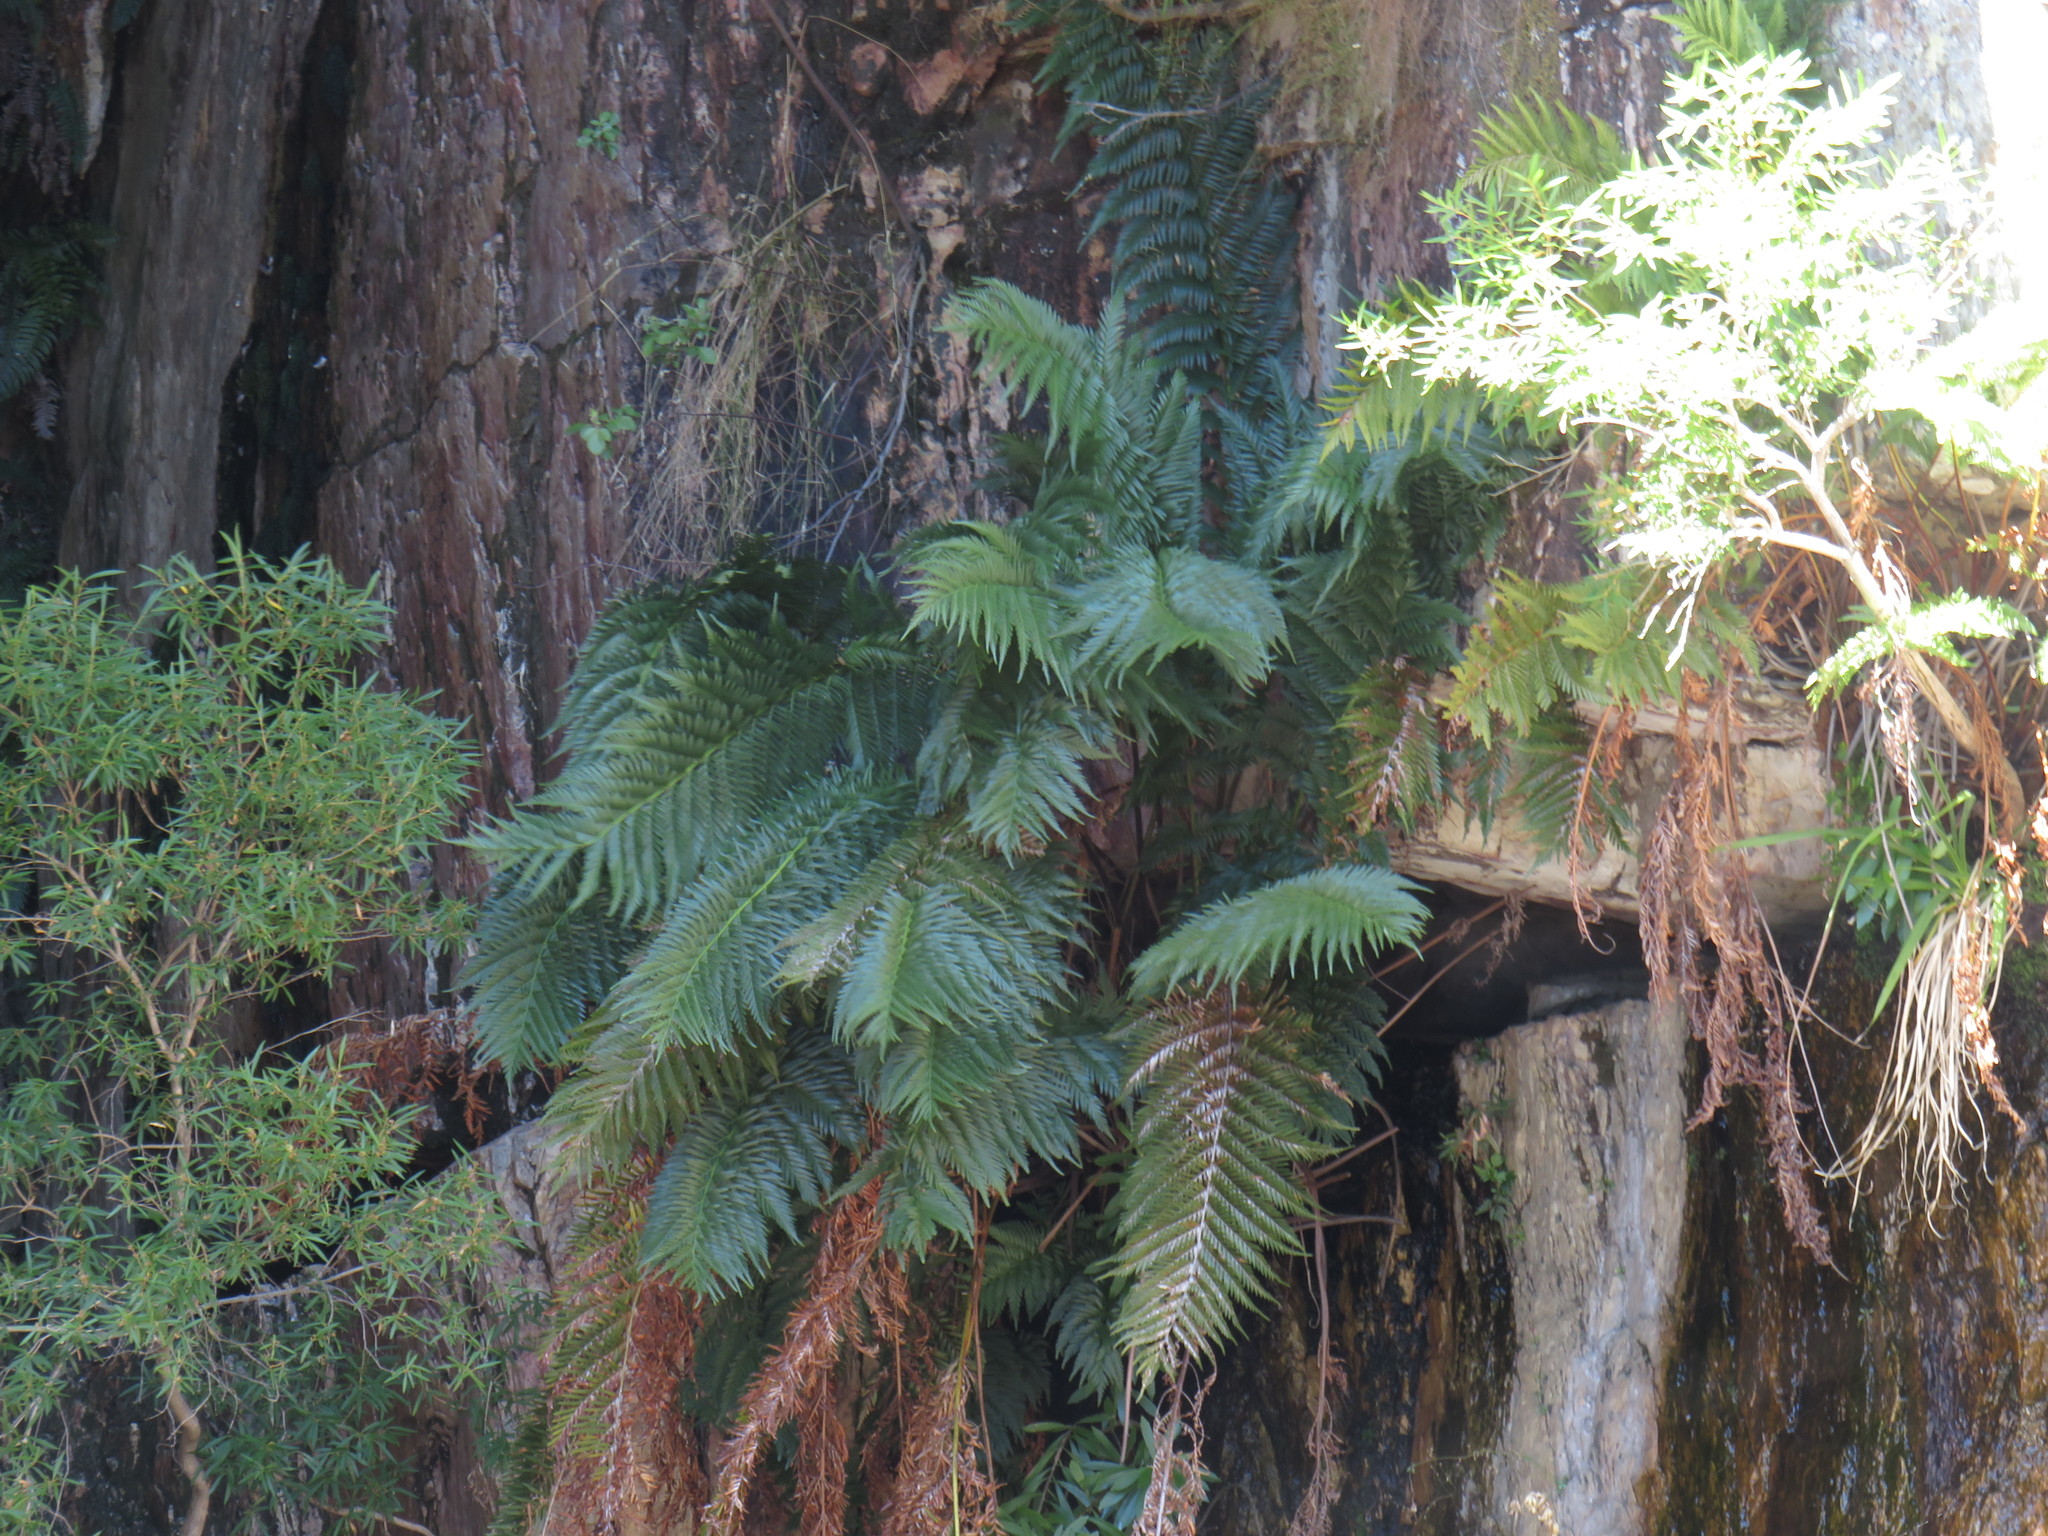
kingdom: Plantae
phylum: Tracheophyta
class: Polypodiopsida
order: Osmundales
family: Osmundaceae
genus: Todea
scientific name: Todea barbara
